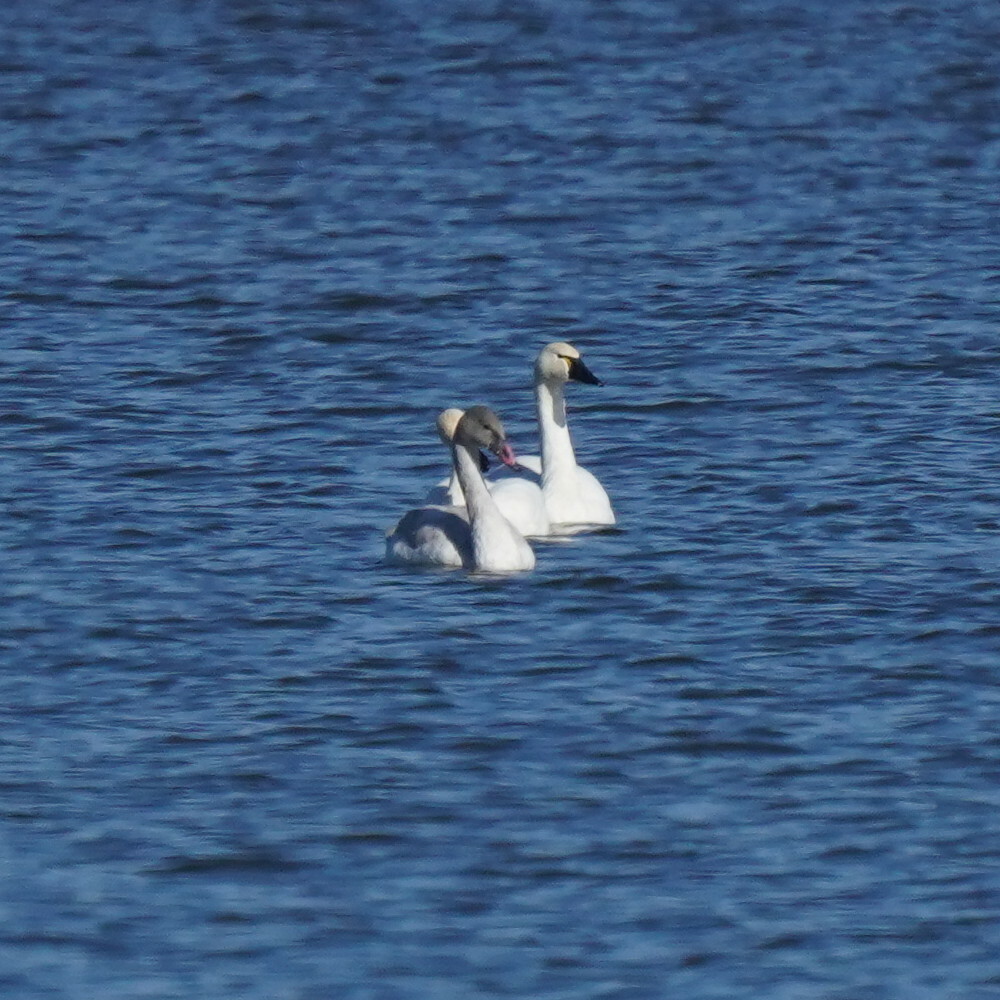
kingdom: Animalia
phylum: Chordata
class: Aves
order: Anseriformes
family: Anatidae
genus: Cygnus
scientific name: Cygnus columbianus
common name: Tundra swan
